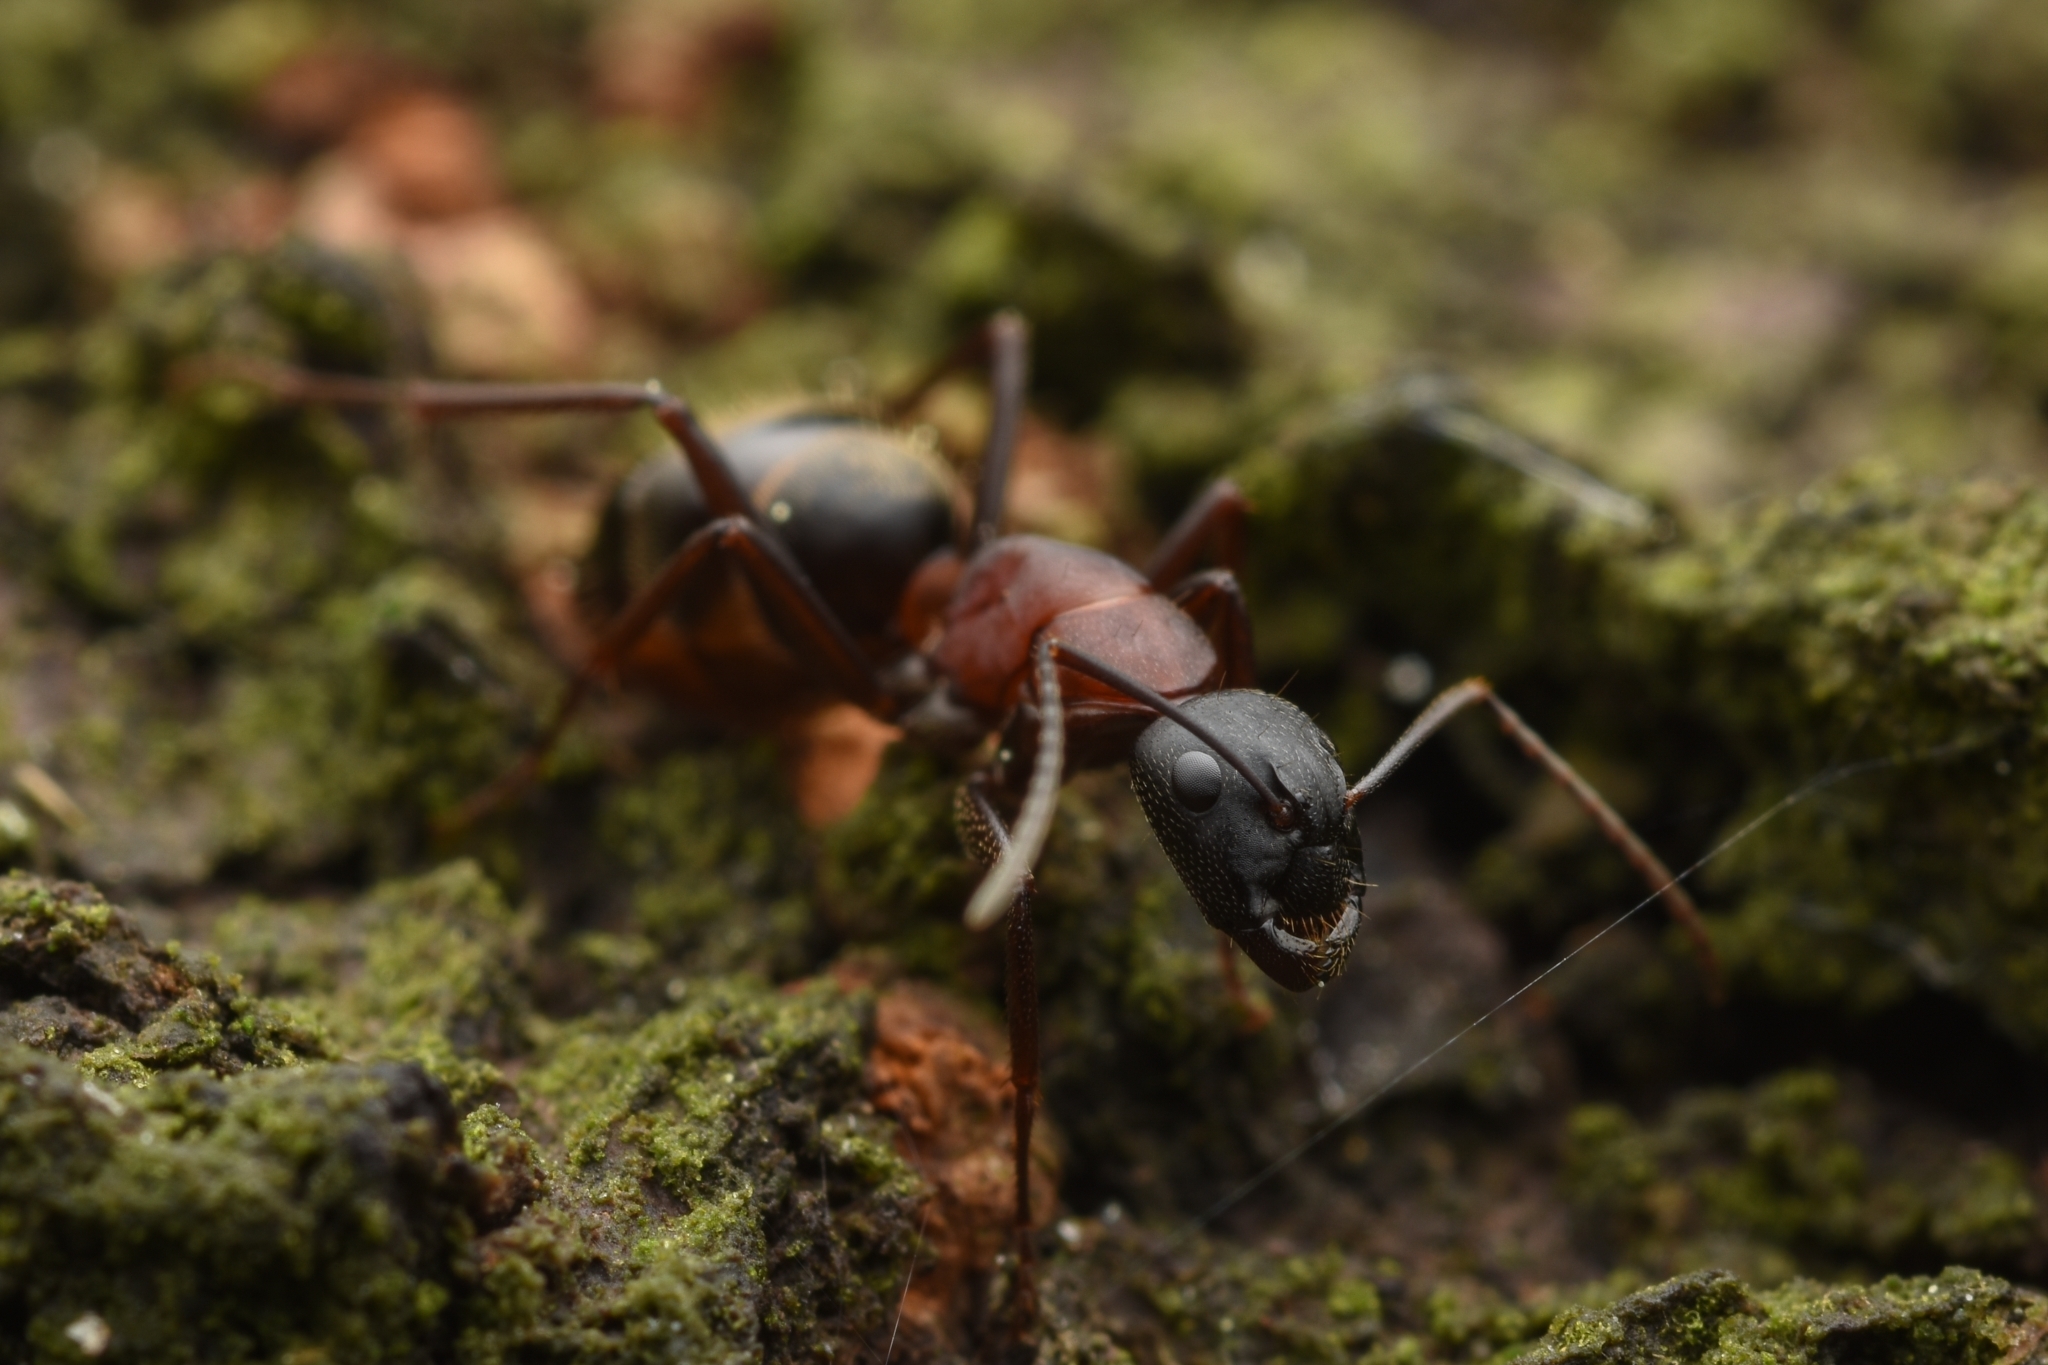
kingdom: Animalia
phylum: Arthropoda
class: Insecta
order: Hymenoptera
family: Formicidae
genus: Camponotus
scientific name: Camponotus atrox
